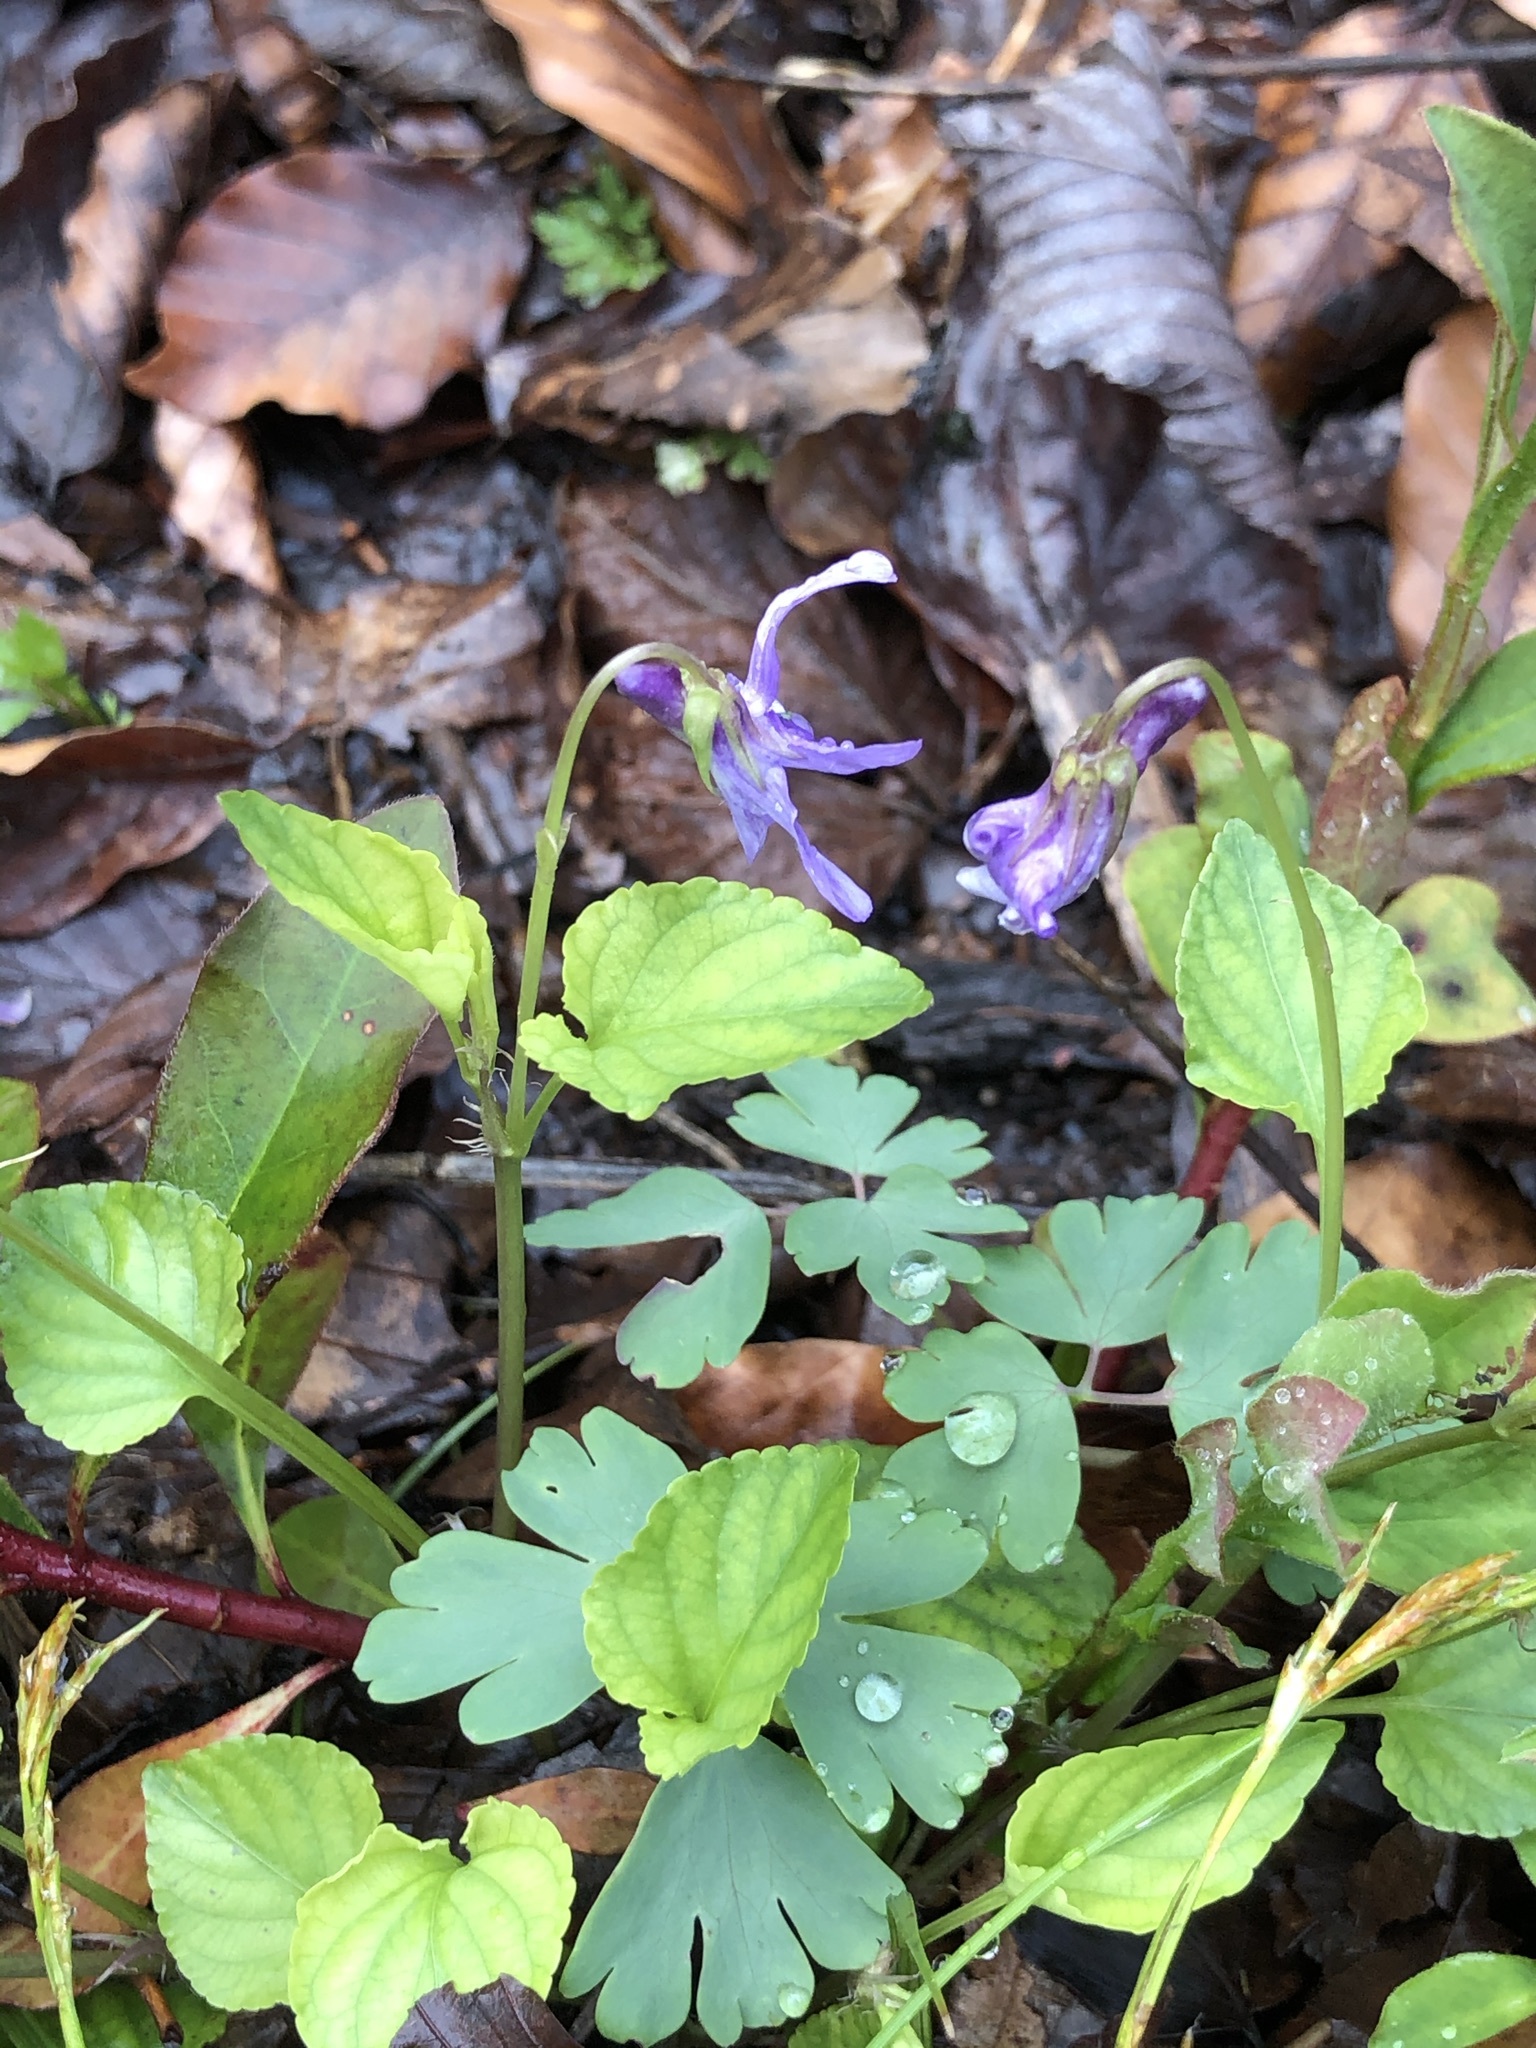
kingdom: Plantae
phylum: Tracheophyta
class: Magnoliopsida
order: Malpighiales
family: Violaceae
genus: Viola
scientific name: Viola reichenbachiana
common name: Early dog-violet
